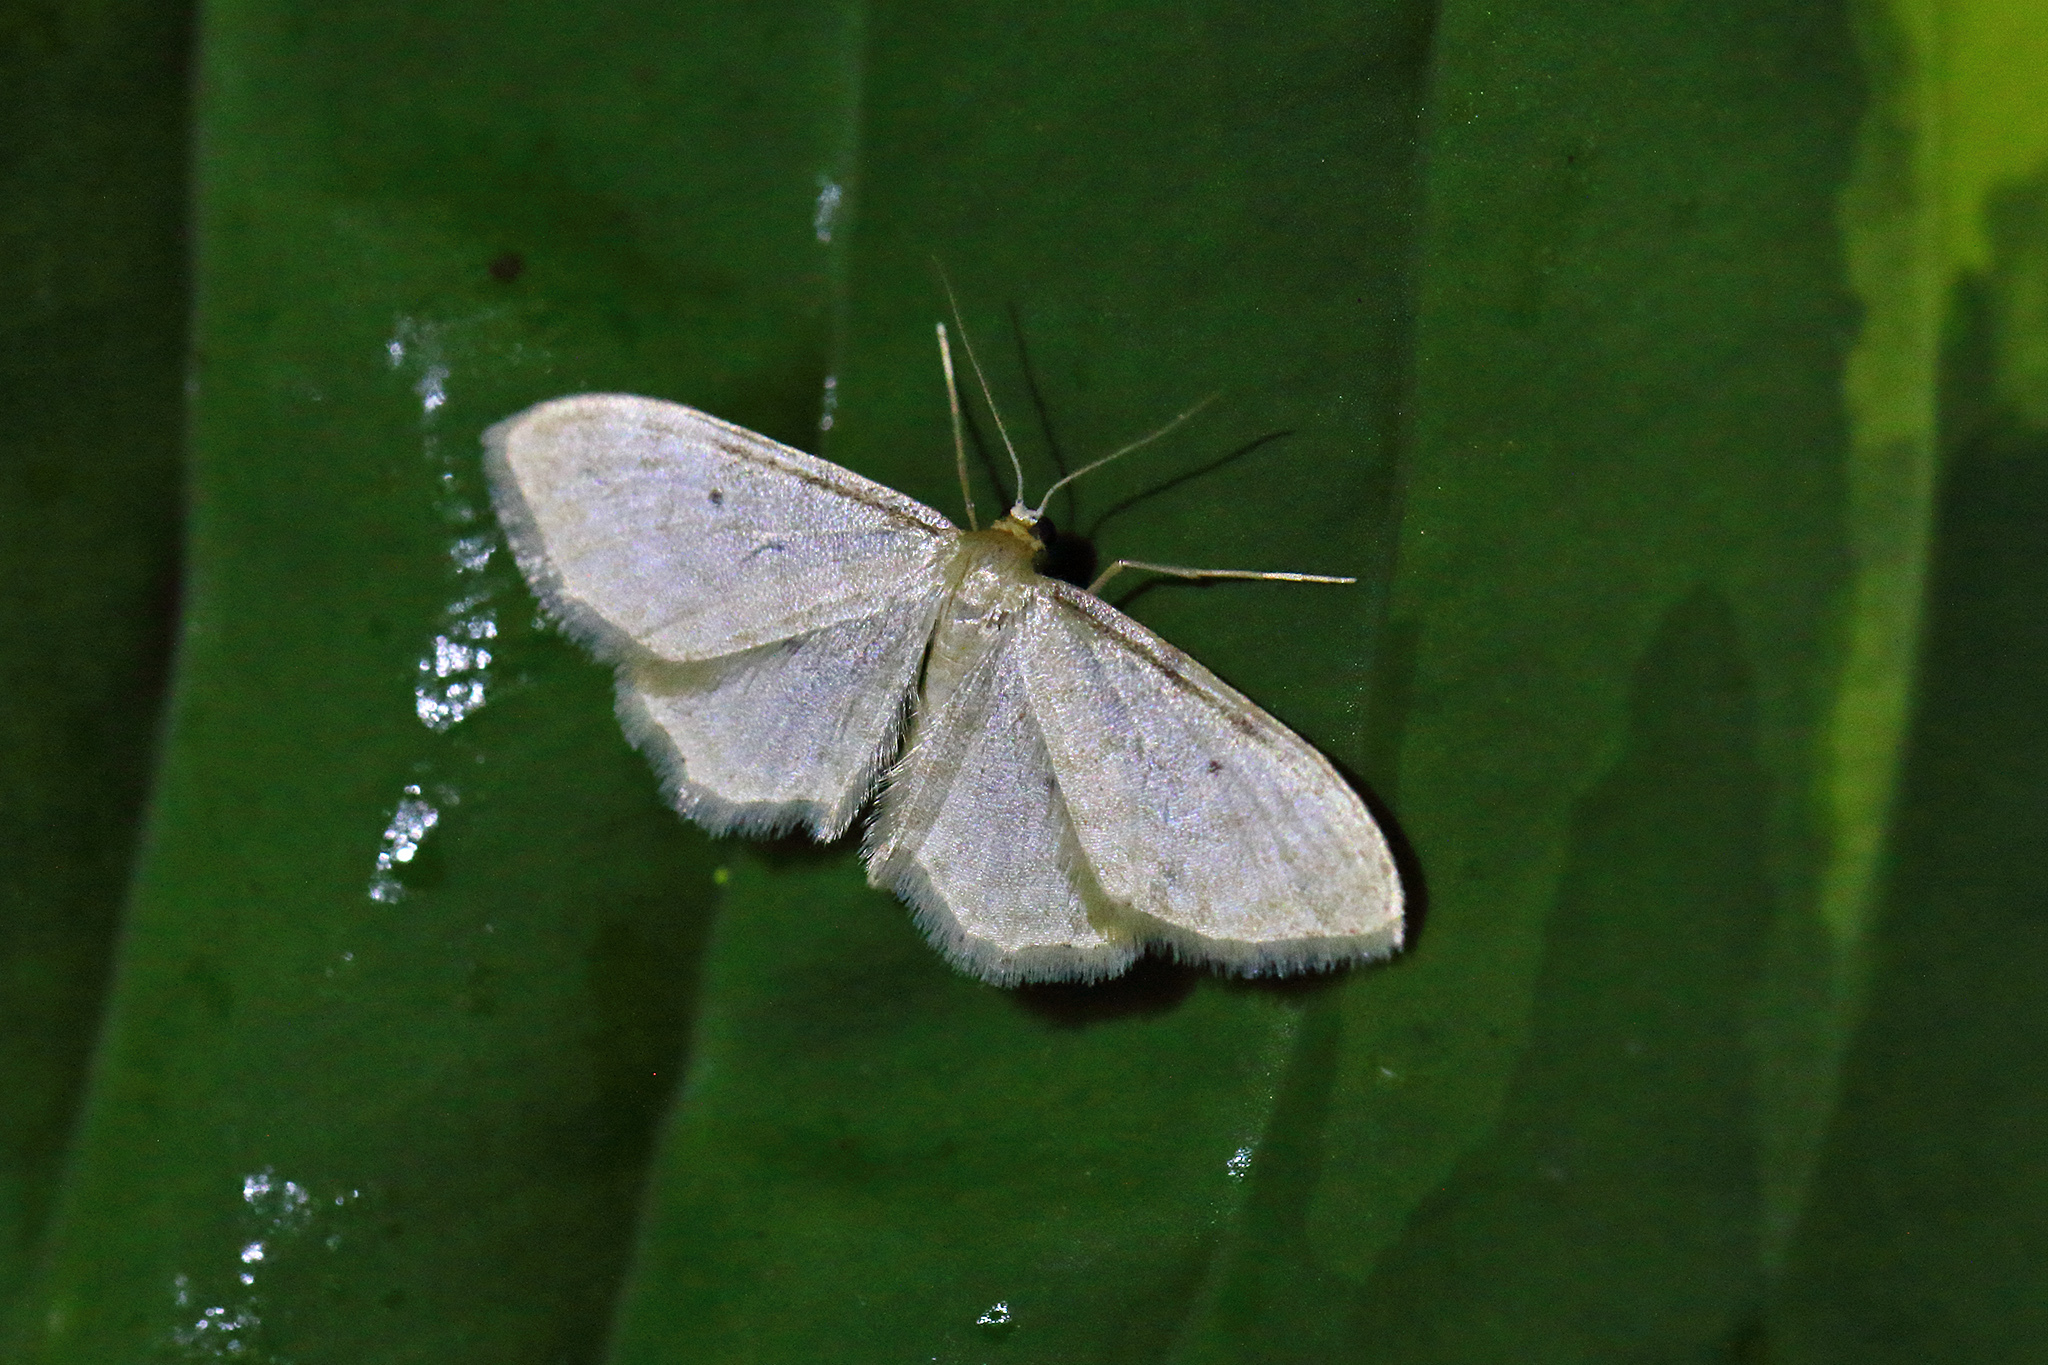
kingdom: Animalia
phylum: Arthropoda
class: Insecta
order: Lepidoptera
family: Geometridae
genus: Idaea
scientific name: Idaea fuscovenosa
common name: Dwarf cream wave
